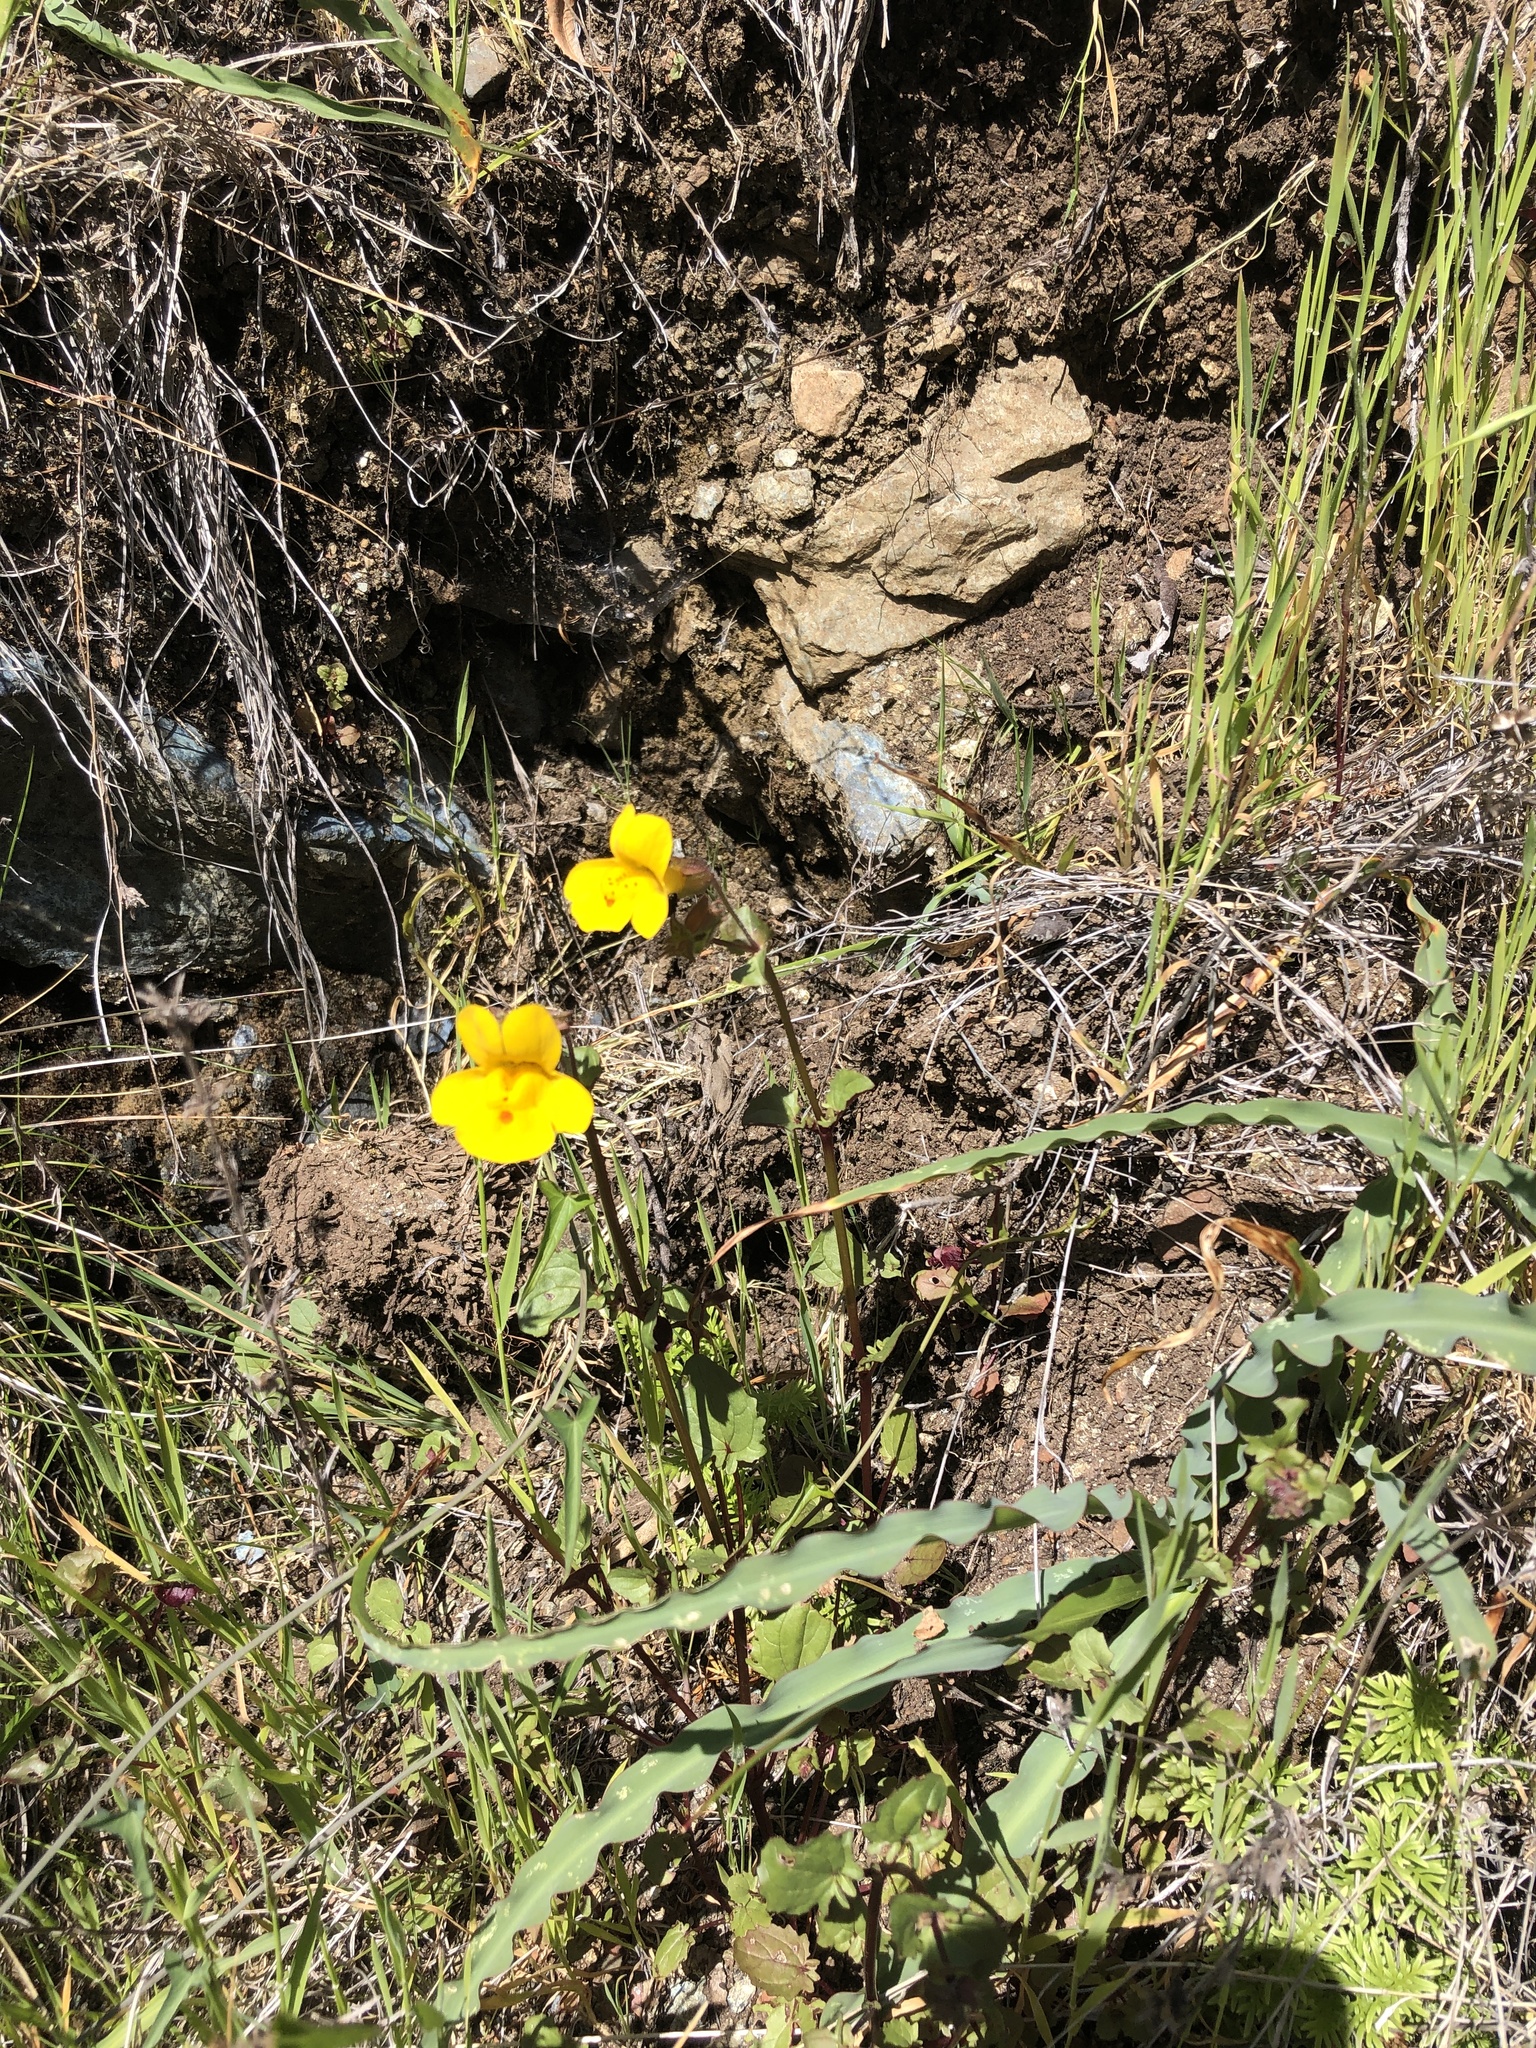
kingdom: Plantae
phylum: Tracheophyta
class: Magnoliopsida
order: Lamiales
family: Phrymaceae
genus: Erythranthe
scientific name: Erythranthe guttata
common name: Monkeyflower
